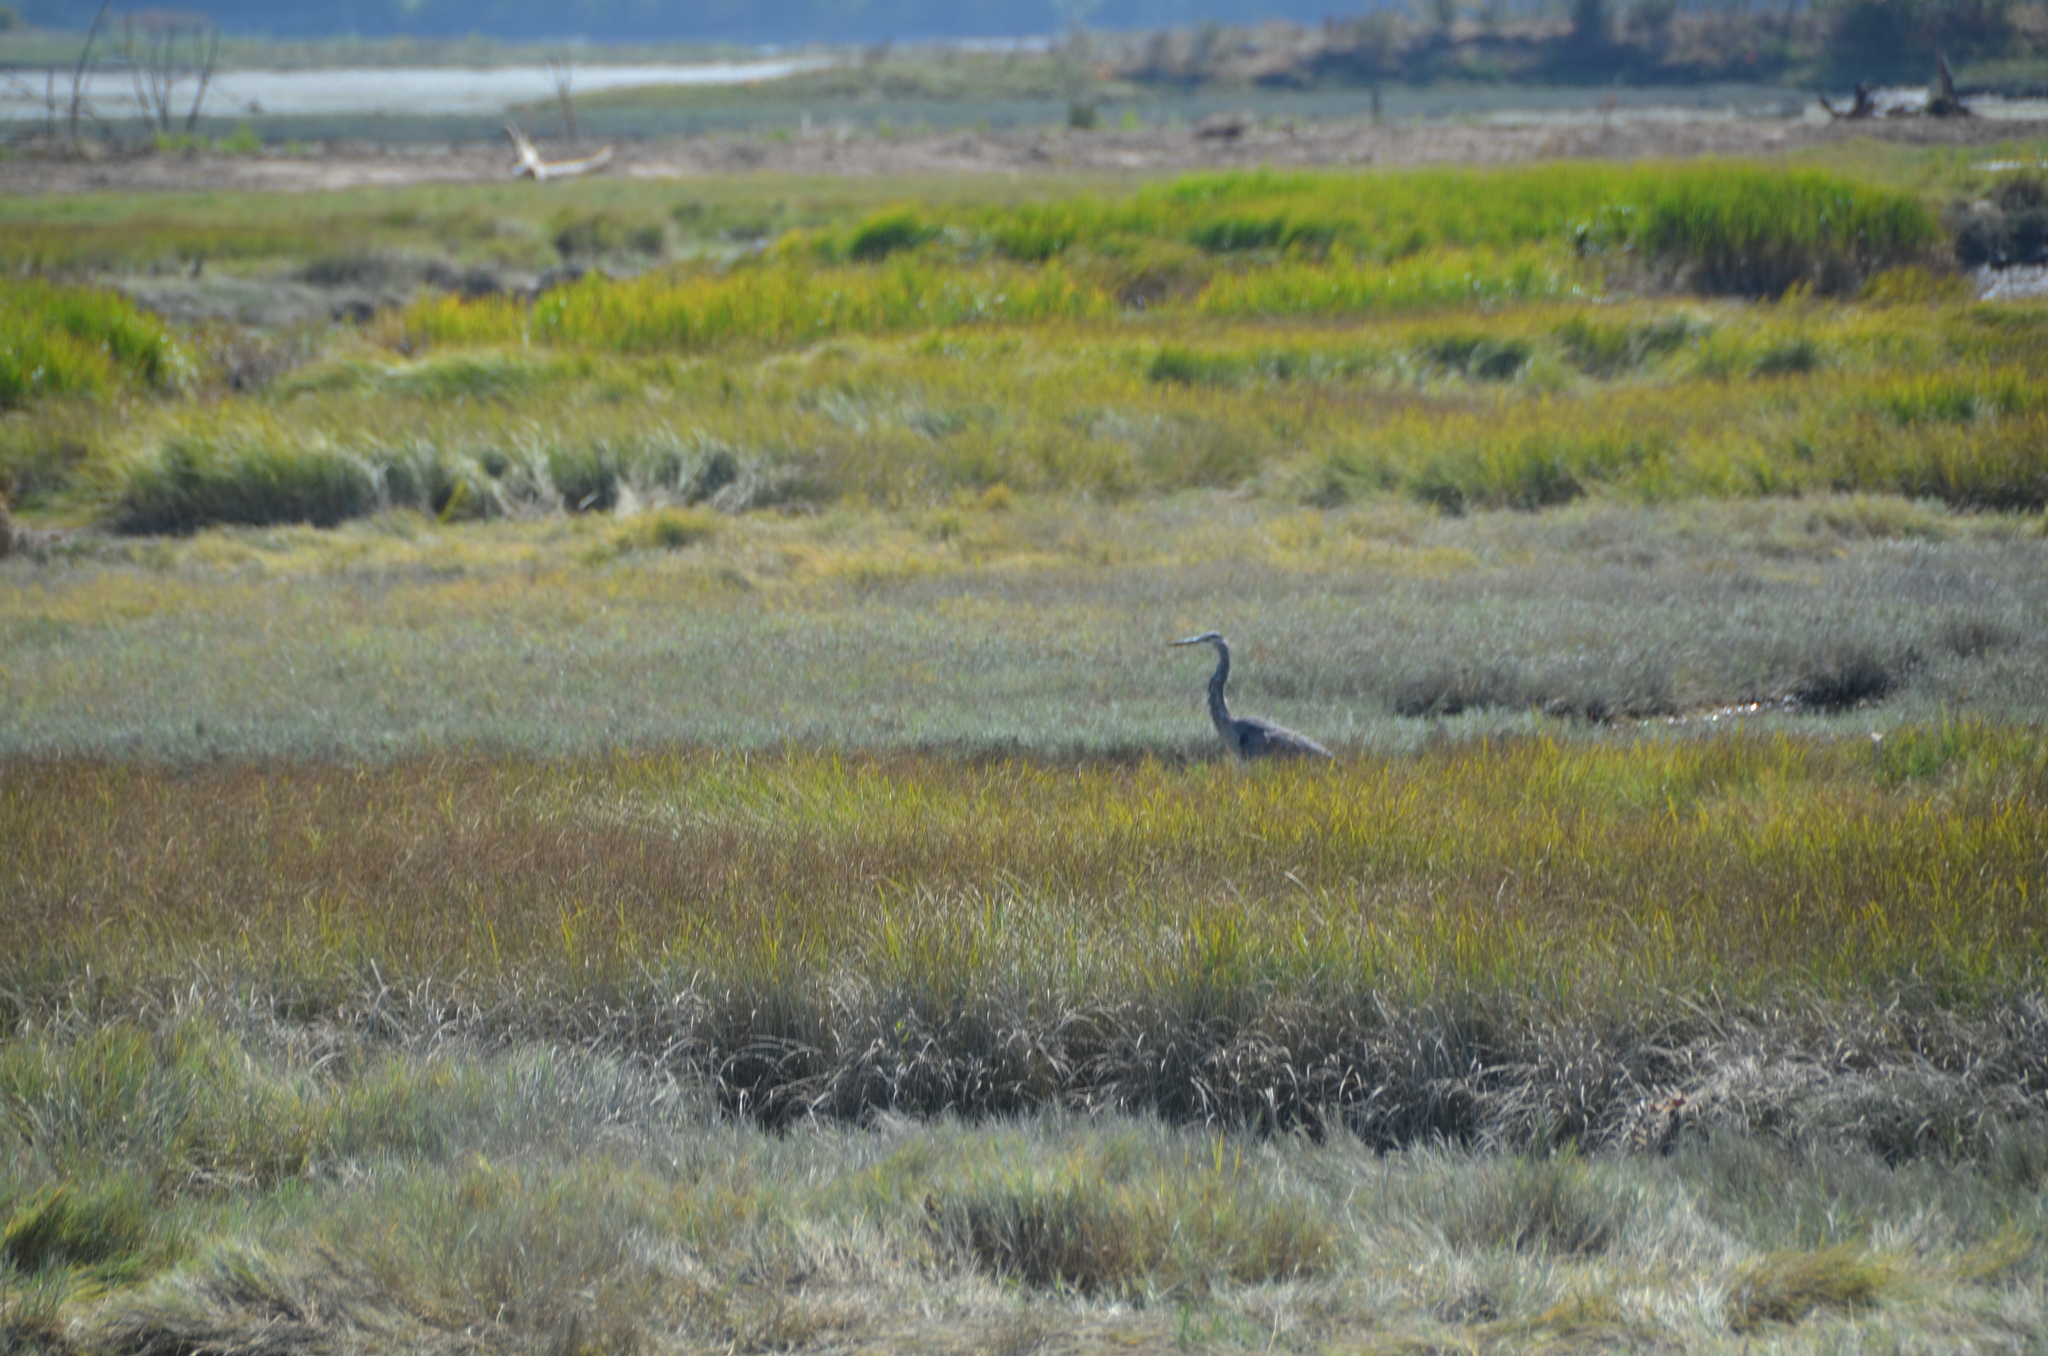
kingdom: Animalia
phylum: Chordata
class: Aves
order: Pelecaniformes
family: Ardeidae
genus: Ardea
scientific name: Ardea herodias
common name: Great blue heron
